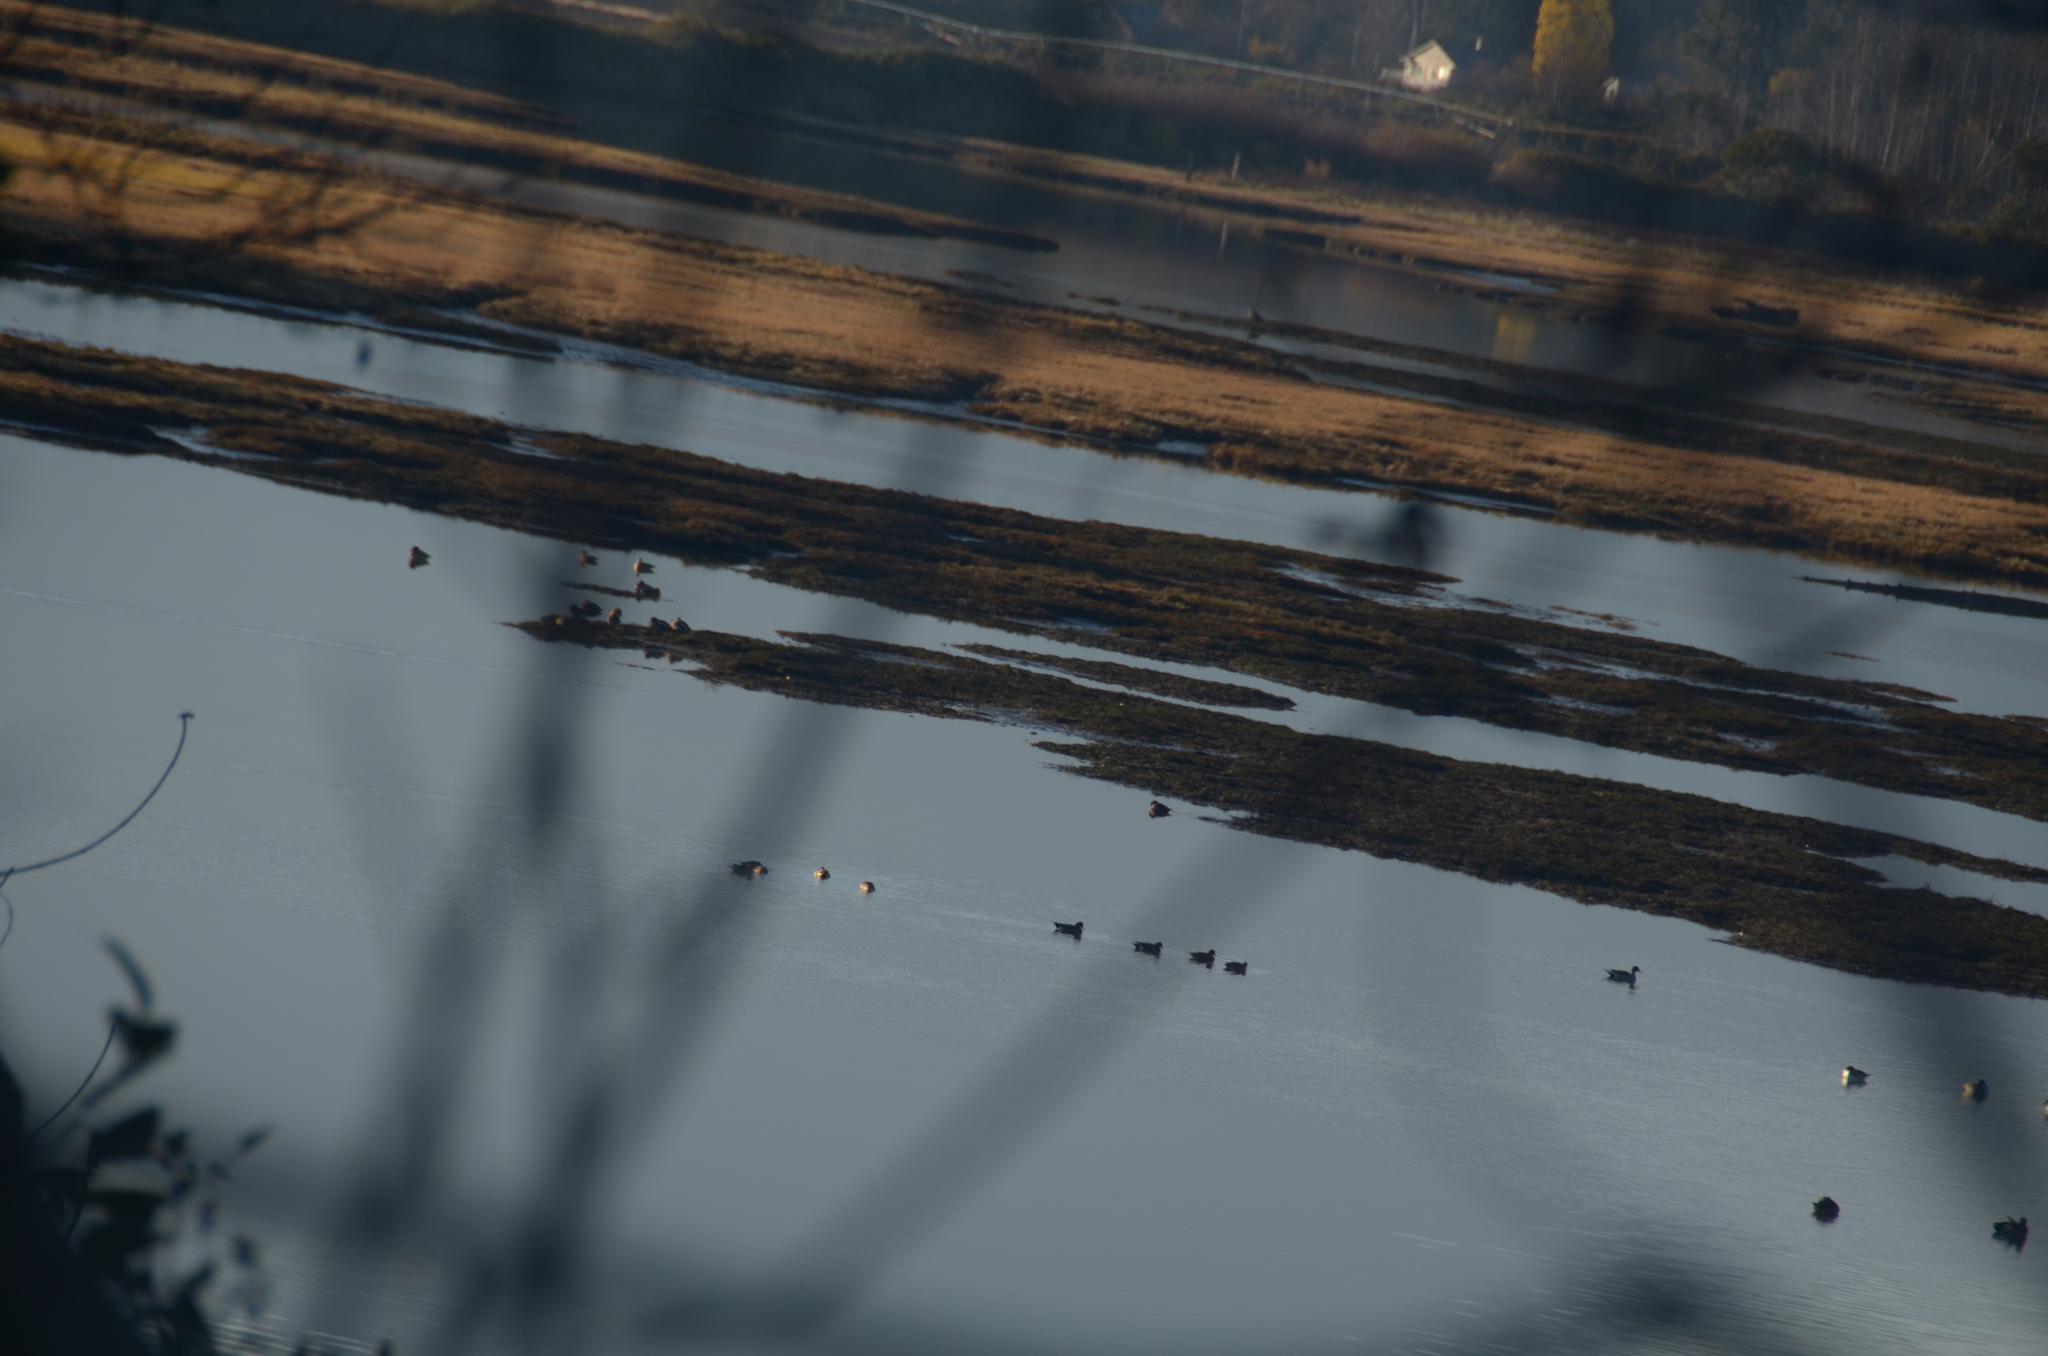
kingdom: Animalia
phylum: Chordata
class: Aves
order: Anseriformes
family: Anatidae
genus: Anas
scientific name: Anas acuta
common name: Northern pintail
